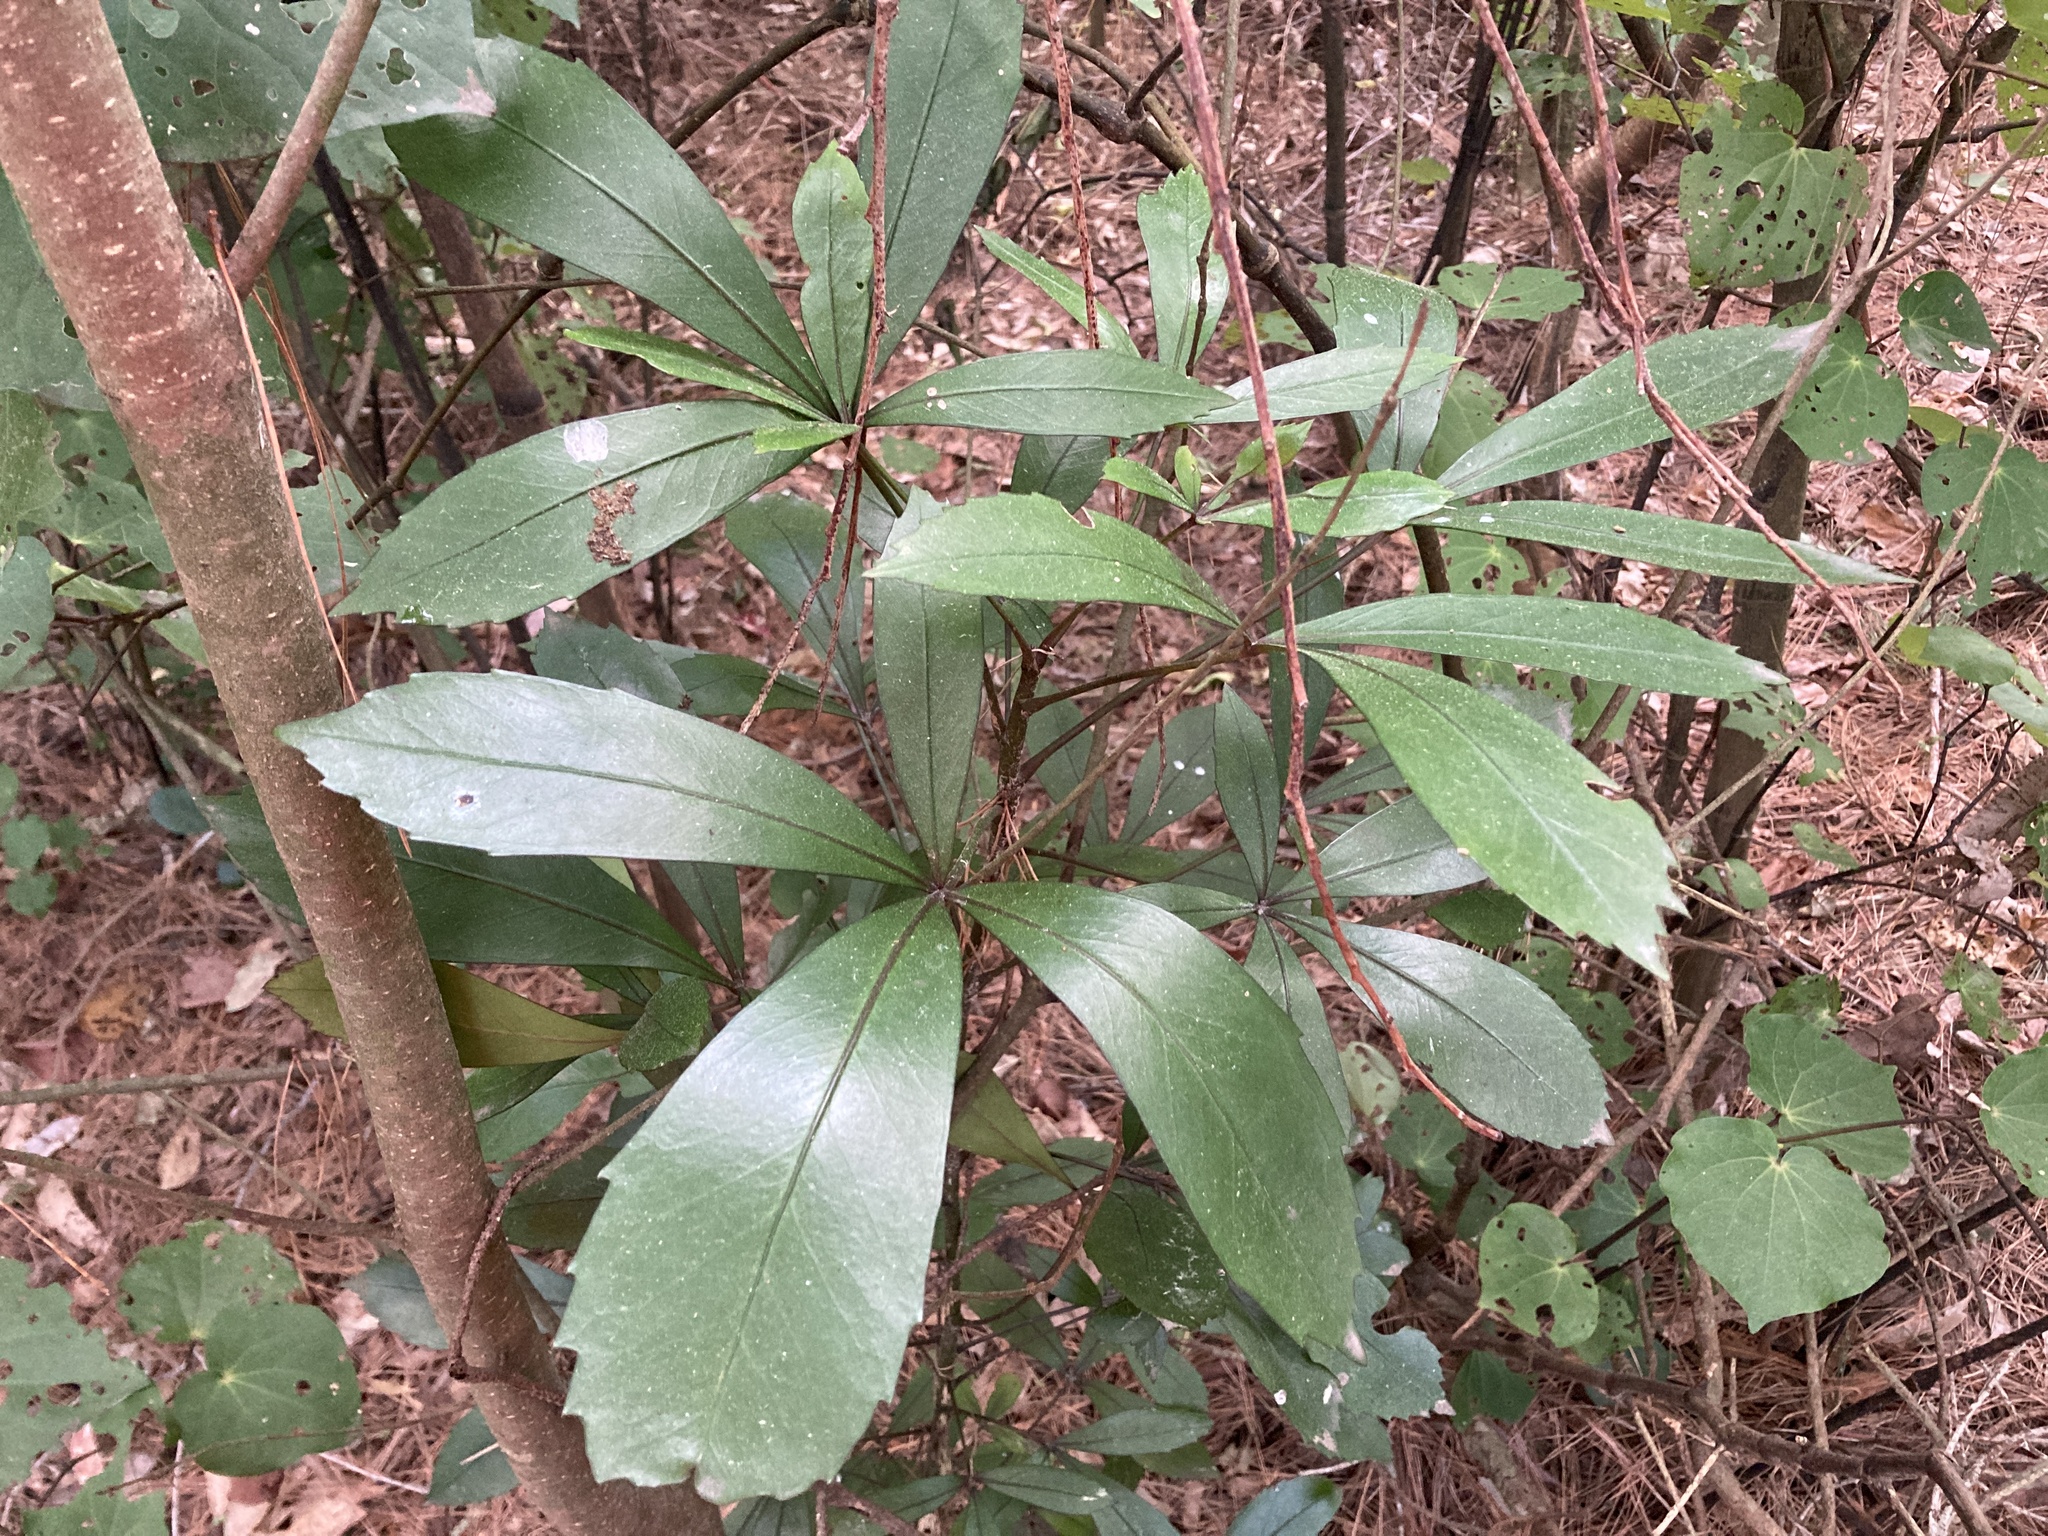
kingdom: Plantae
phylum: Tracheophyta
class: Magnoliopsida
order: Apiales
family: Araliaceae
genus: Pseudopanax
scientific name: Pseudopanax
